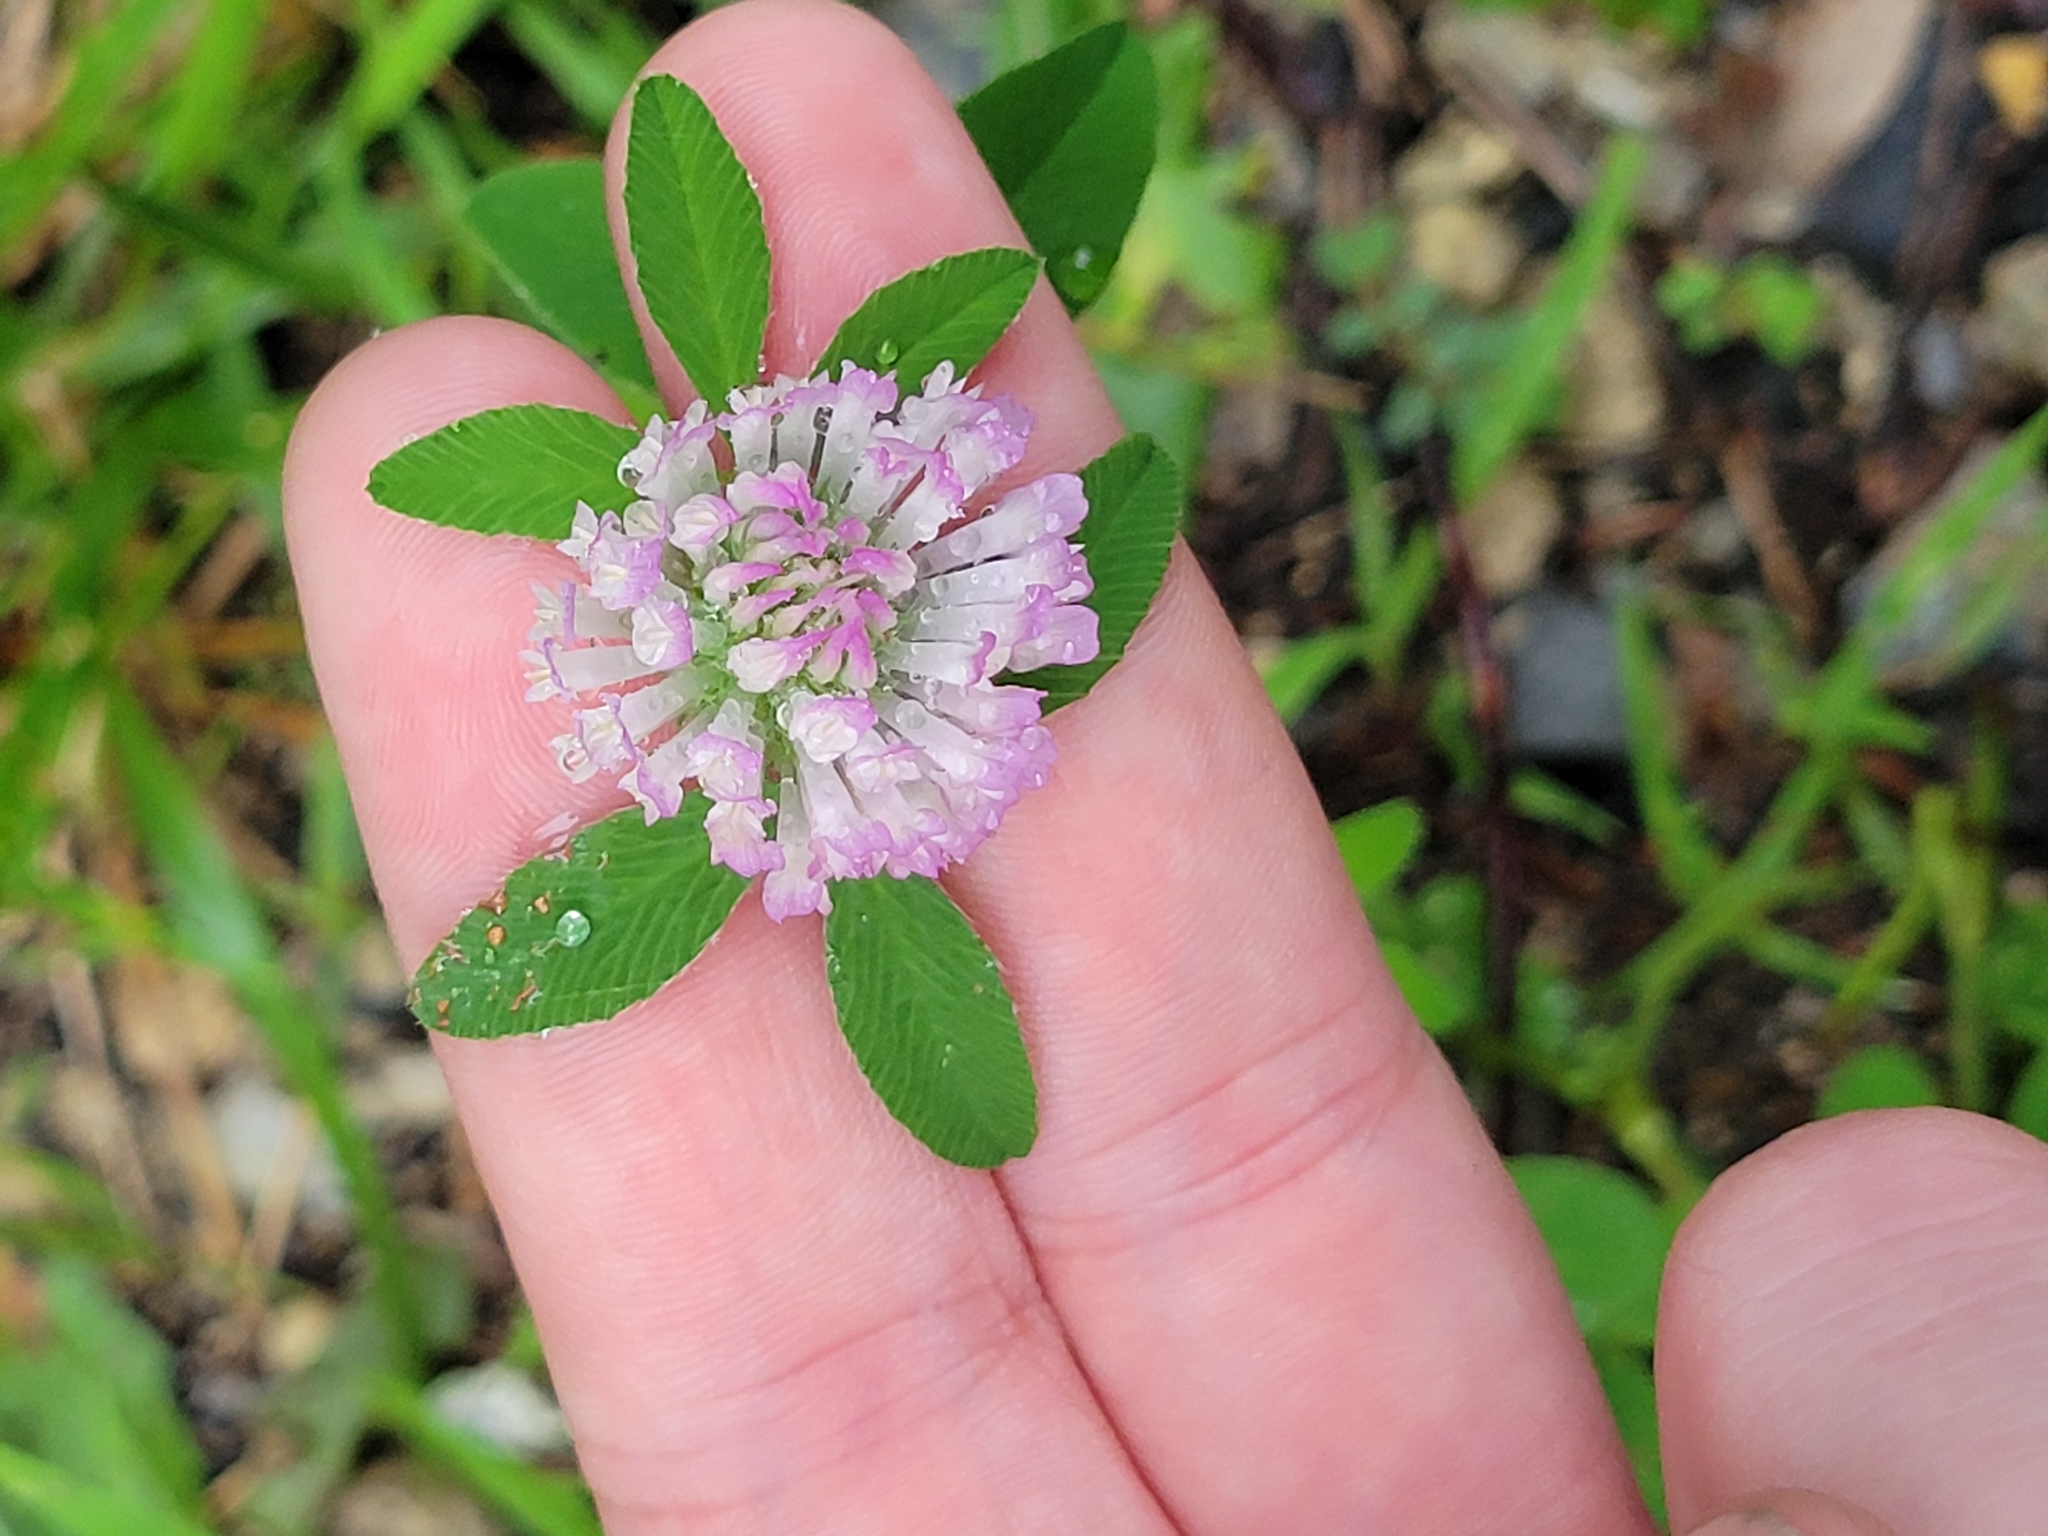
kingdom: Plantae
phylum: Tracheophyta
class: Magnoliopsida
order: Fabales
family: Fabaceae
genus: Trifolium
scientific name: Trifolium pratense
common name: Red clover
